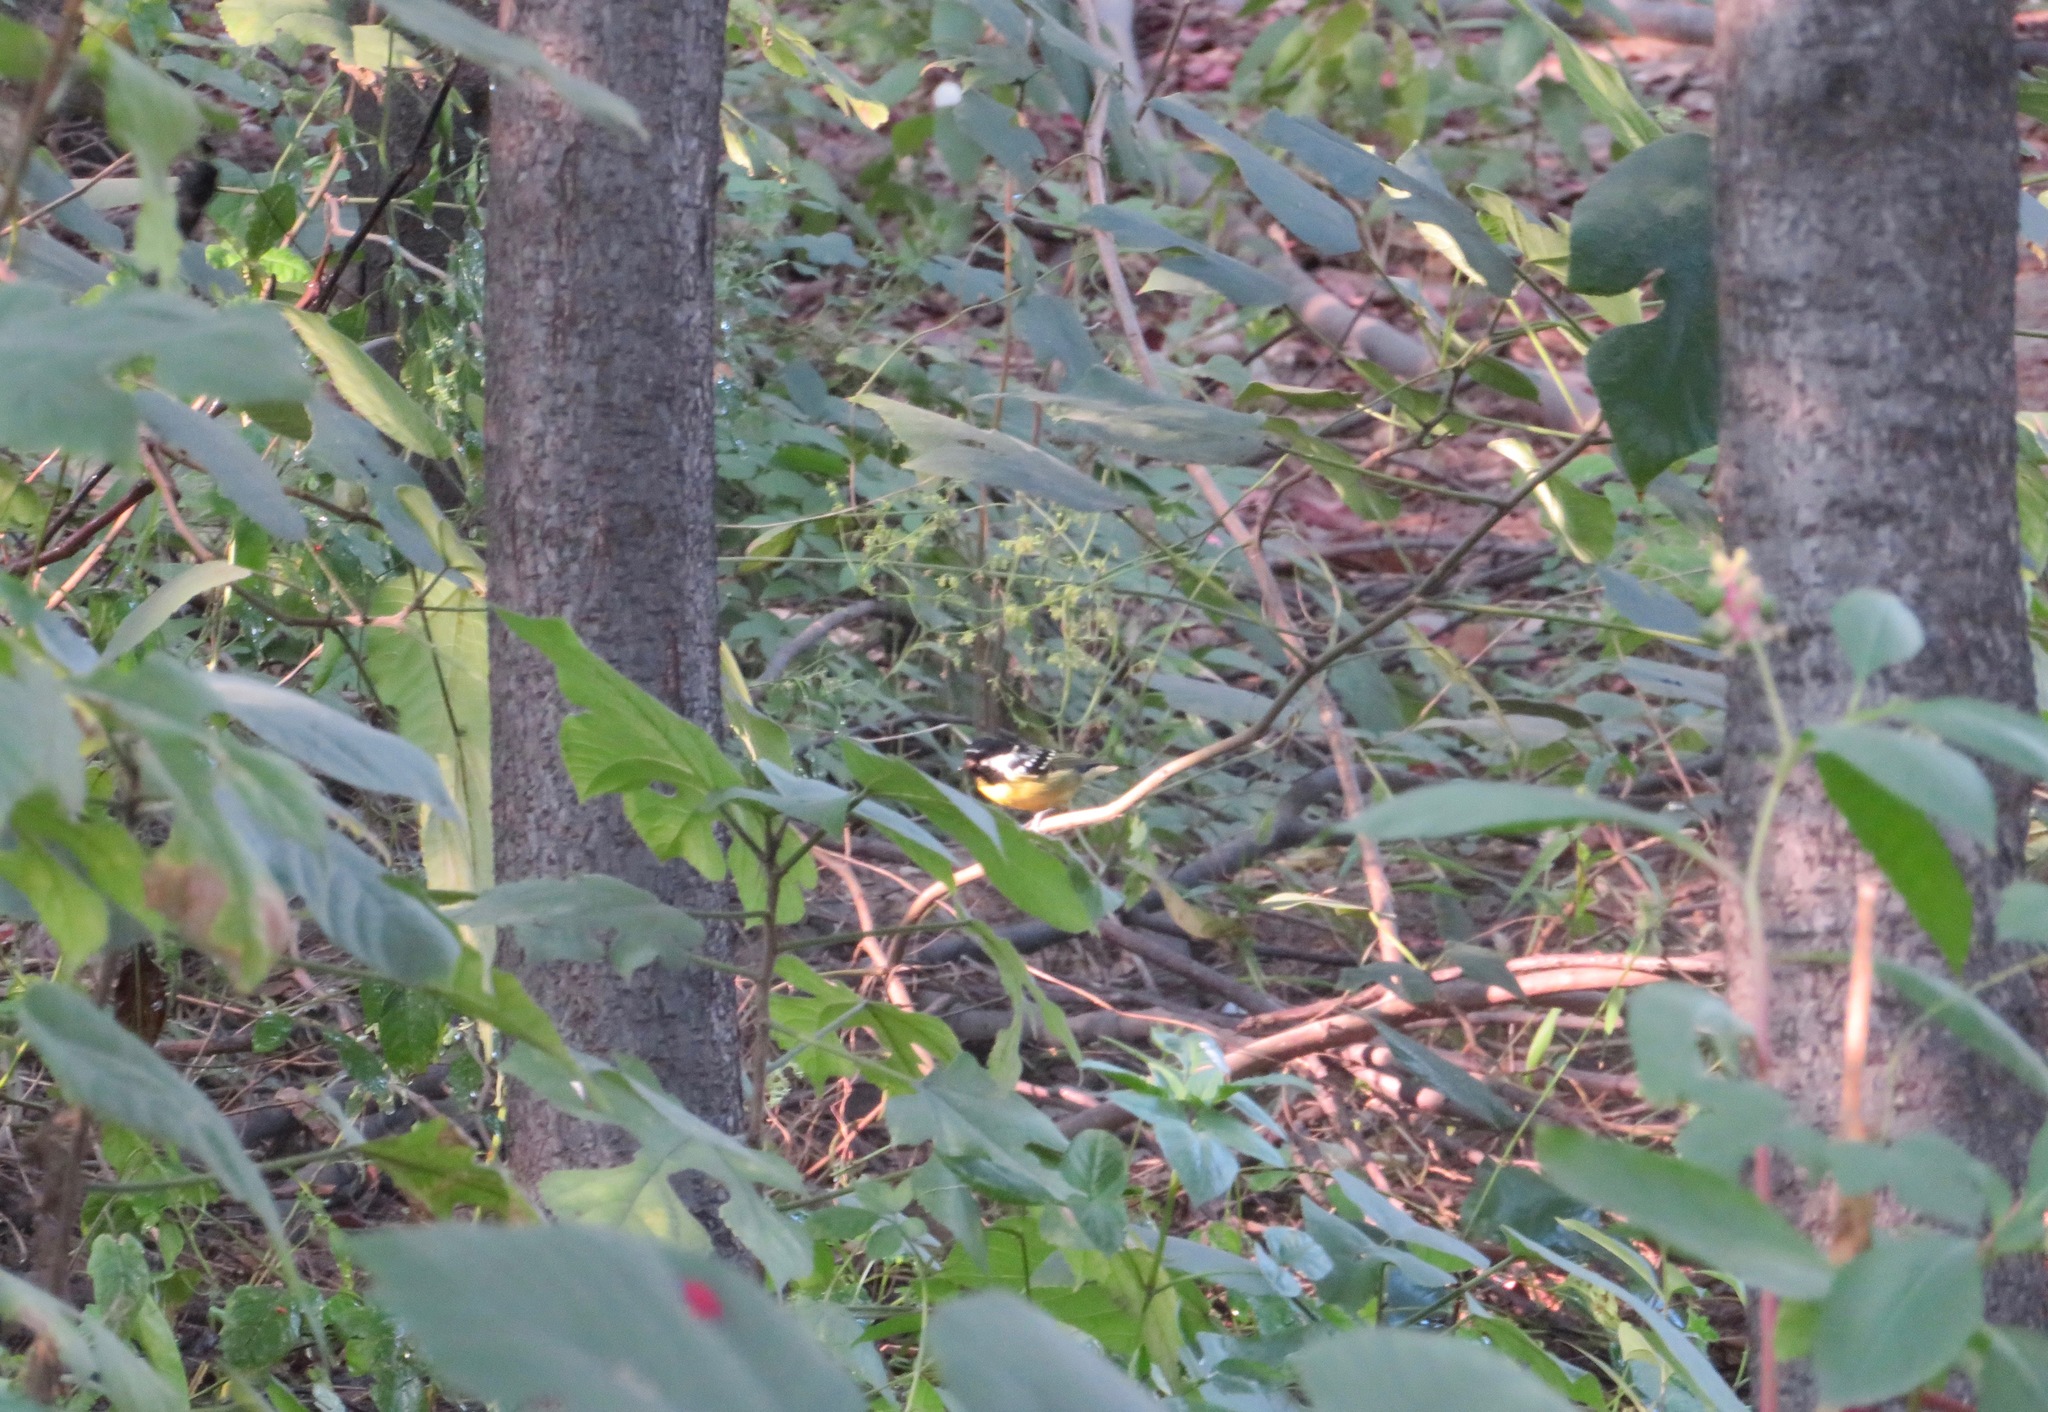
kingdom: Animalia
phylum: Chordata
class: Aves
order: Passeriformes
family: Paridae
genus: Periparus
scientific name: Periparus venustulus
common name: Yellow-bellied tit
